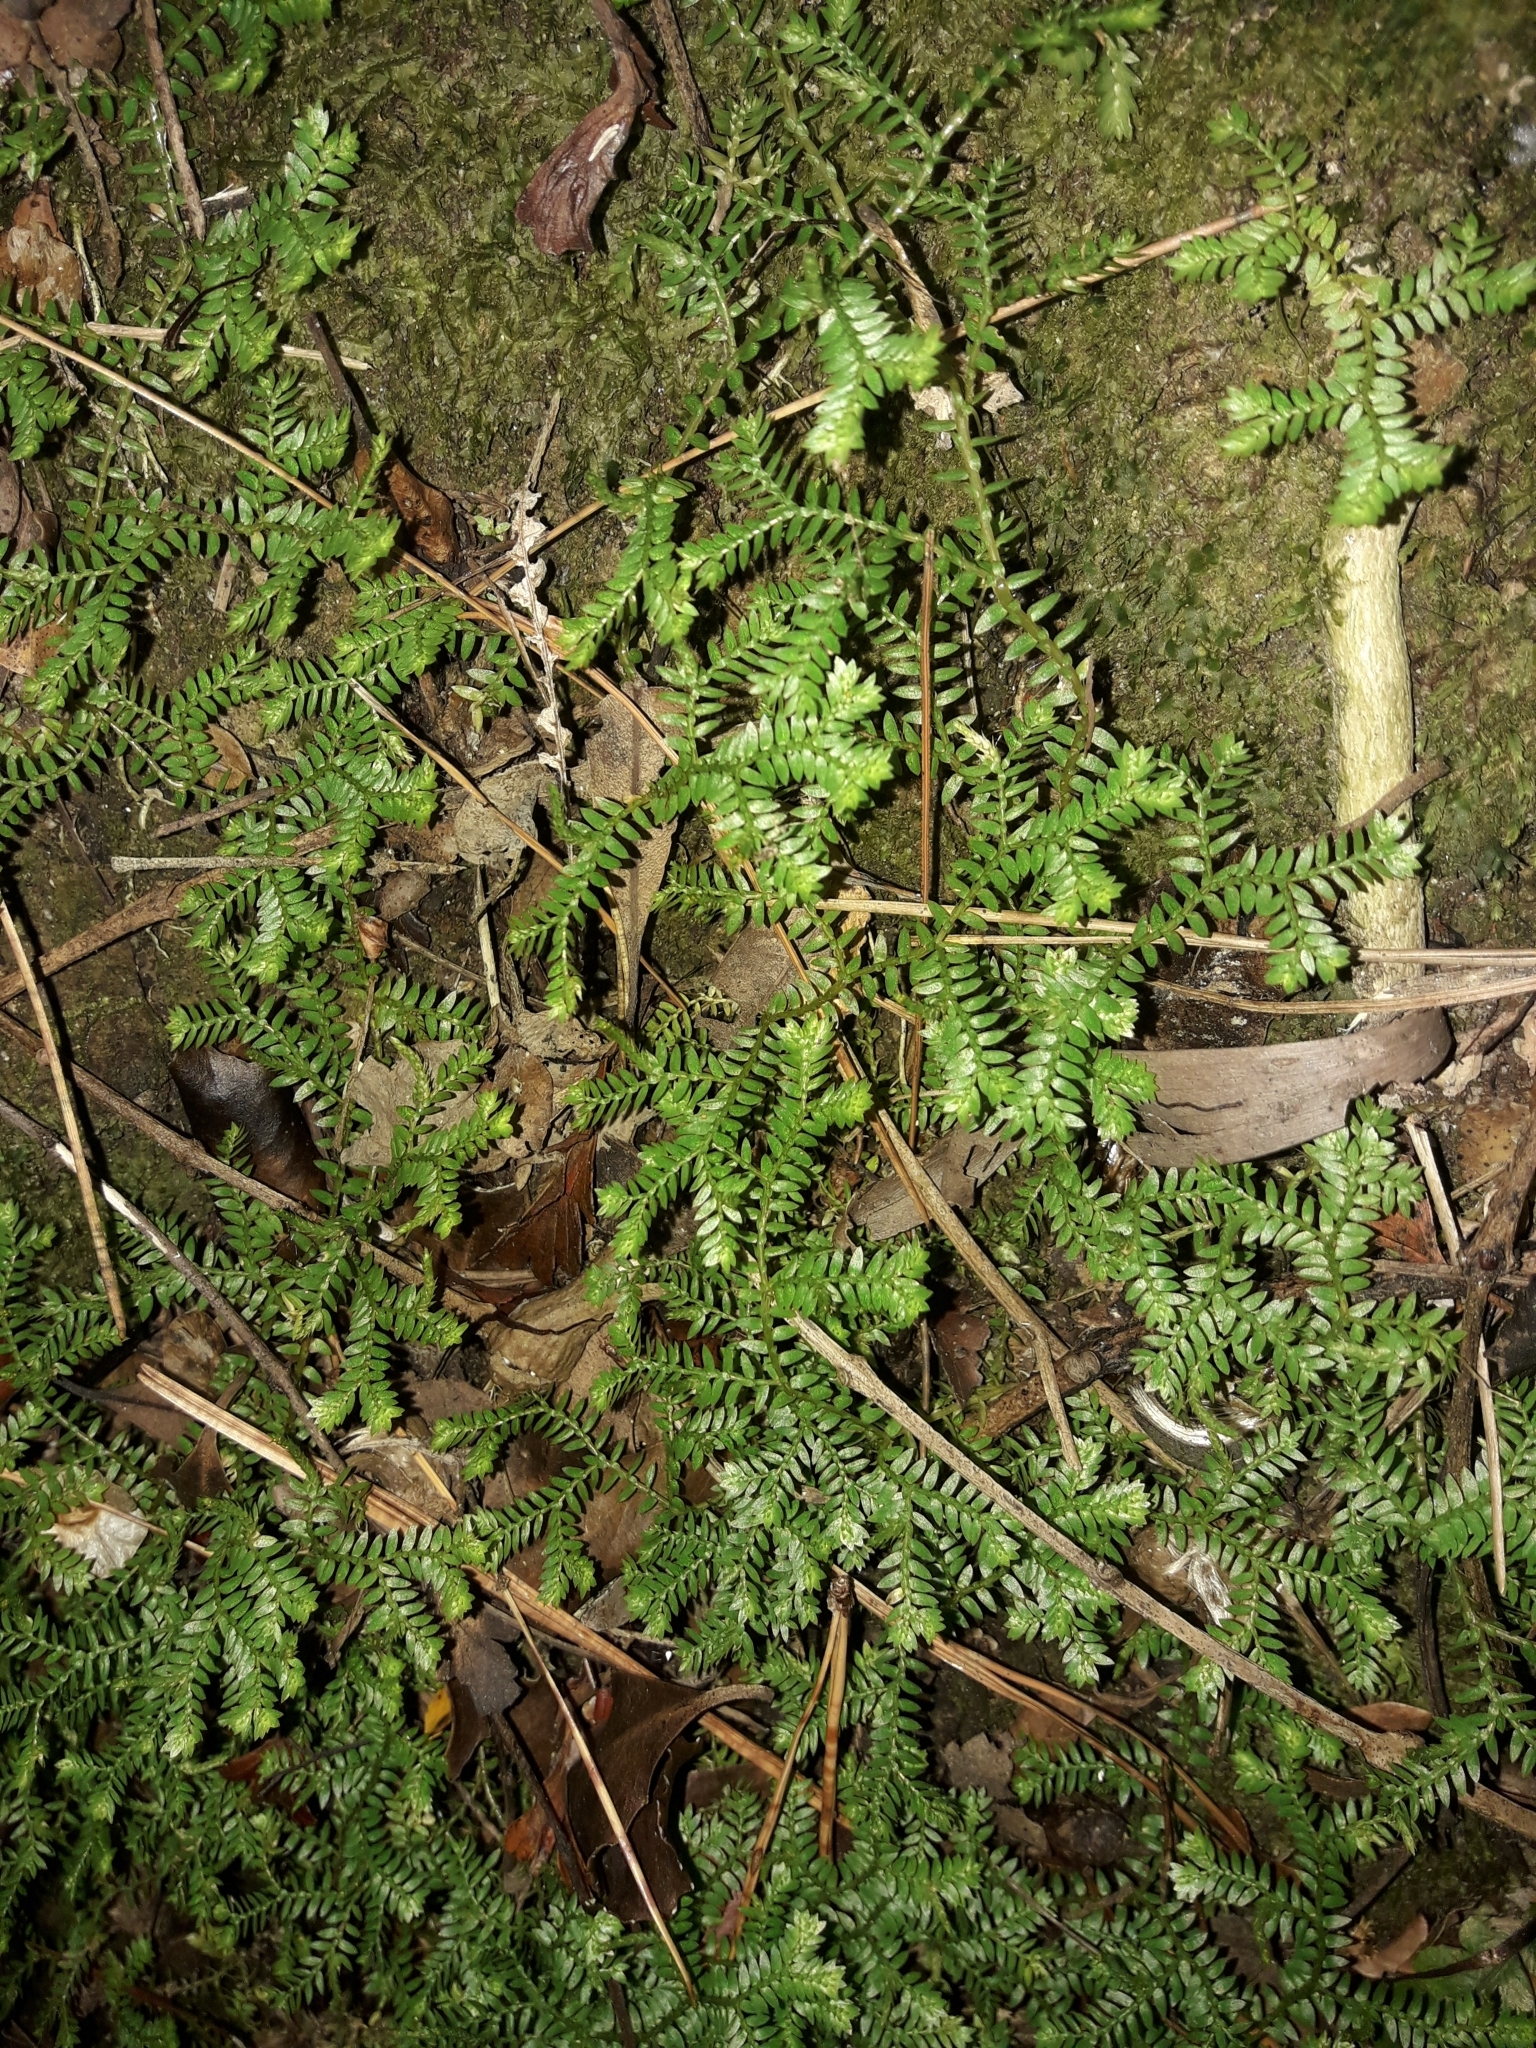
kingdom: Plantae
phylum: Tracheophyta
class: Lycopodiopsida
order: Selaginellales
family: Selaginellaceae
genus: Selaginella
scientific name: Selaginella kraussiana
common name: Krauss' spikemoss
